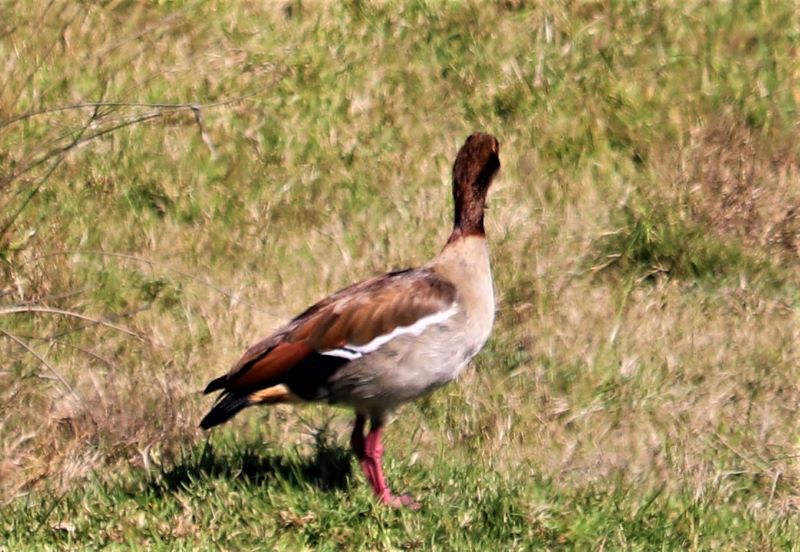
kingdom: Animalia
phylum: Chordata
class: Aves
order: Anseriformes
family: Anatidae
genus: Alopochen
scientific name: Alopochen aegyptiaca
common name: Egyptian goose
